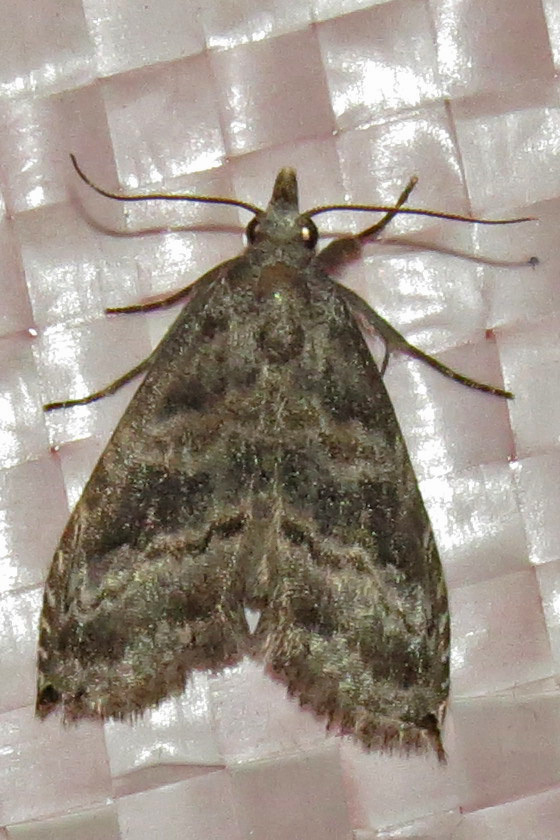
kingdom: Animalia
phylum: Arthropoda
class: Insecta
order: Lepidoptera
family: Noctuidae
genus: Phobolosia
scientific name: Phobolosia anfracta
